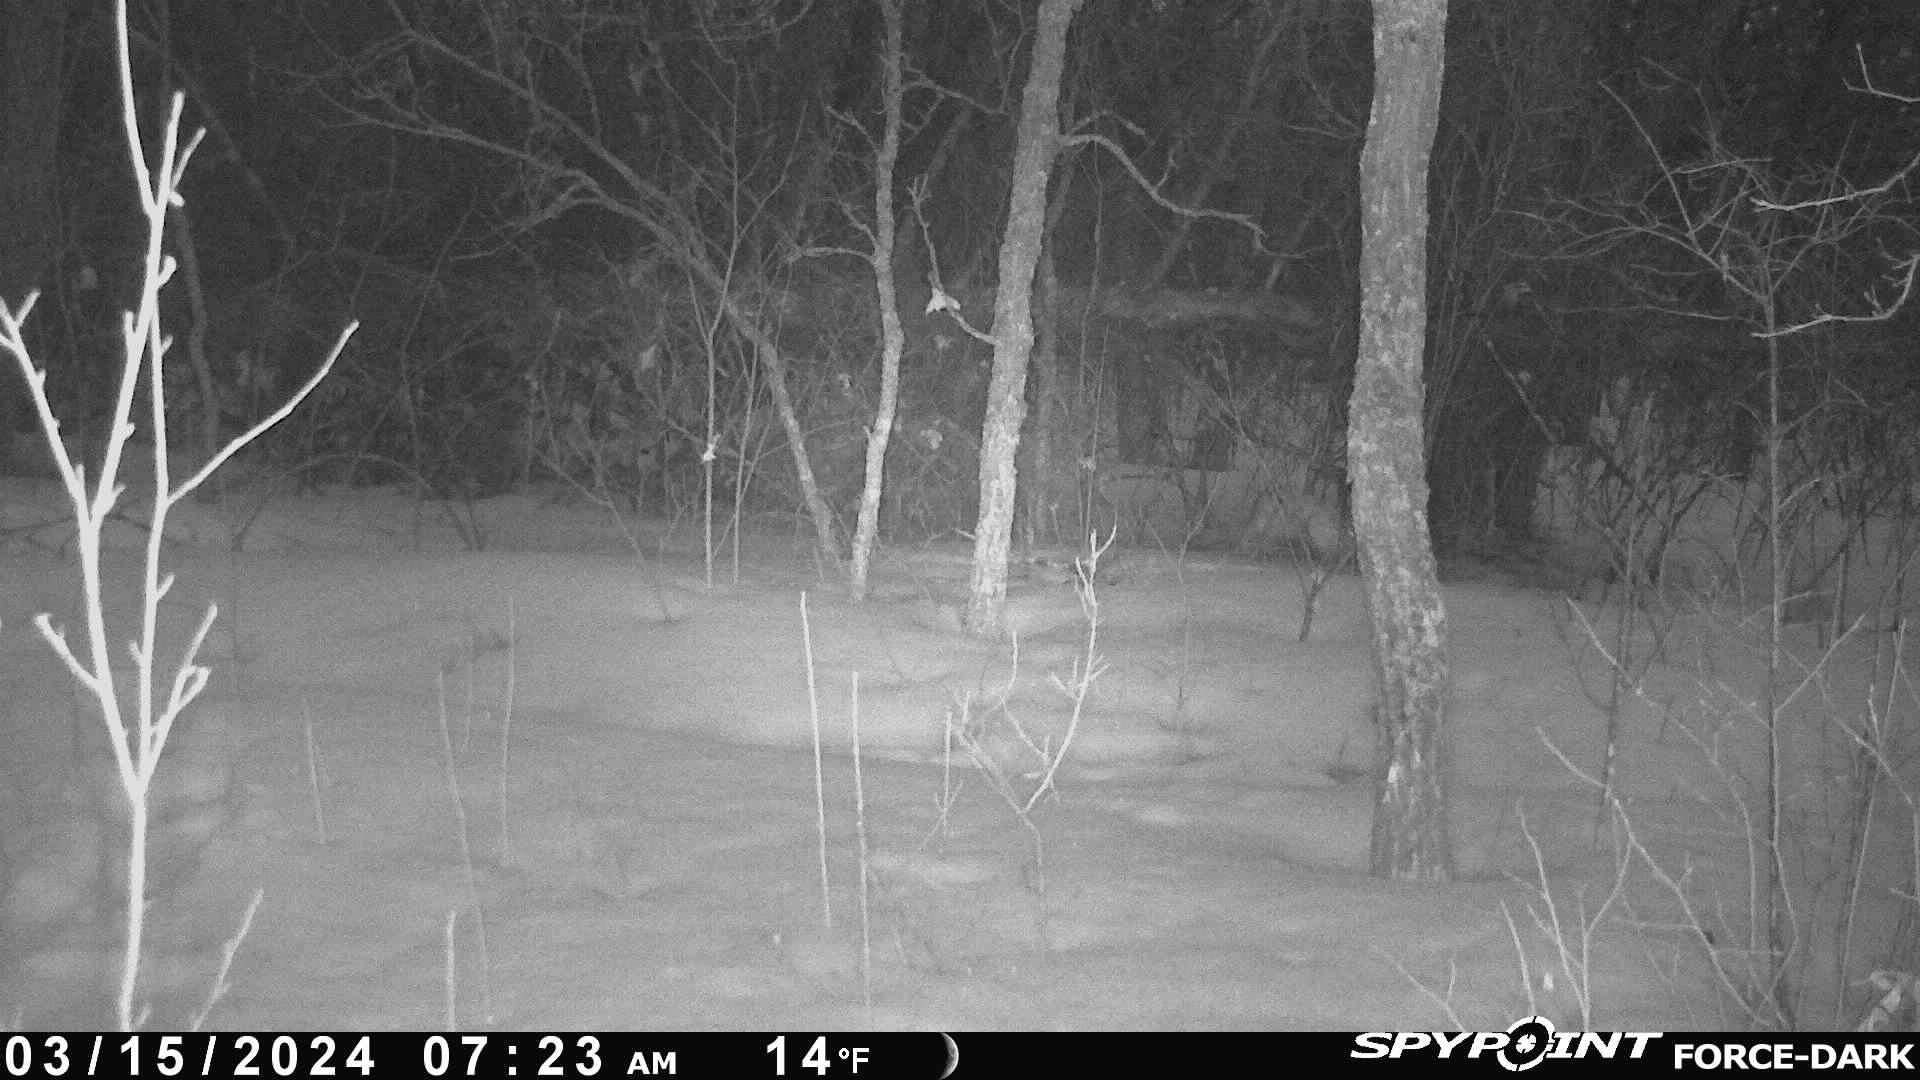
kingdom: Animalia
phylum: Chordata
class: Mammalia
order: Lagomorpha
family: Leporidae
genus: Lepus
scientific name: Lepus americanus
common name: Snowshoe hare
